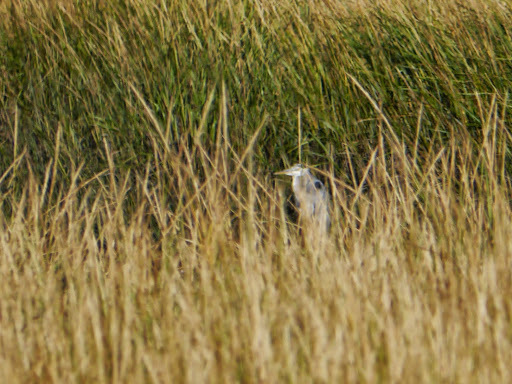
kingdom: Animalia
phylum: Chordata
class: Aves
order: Pelecaniformes
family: Ardeidae
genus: Ardea
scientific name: Ardea herodias
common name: Great blue heron
